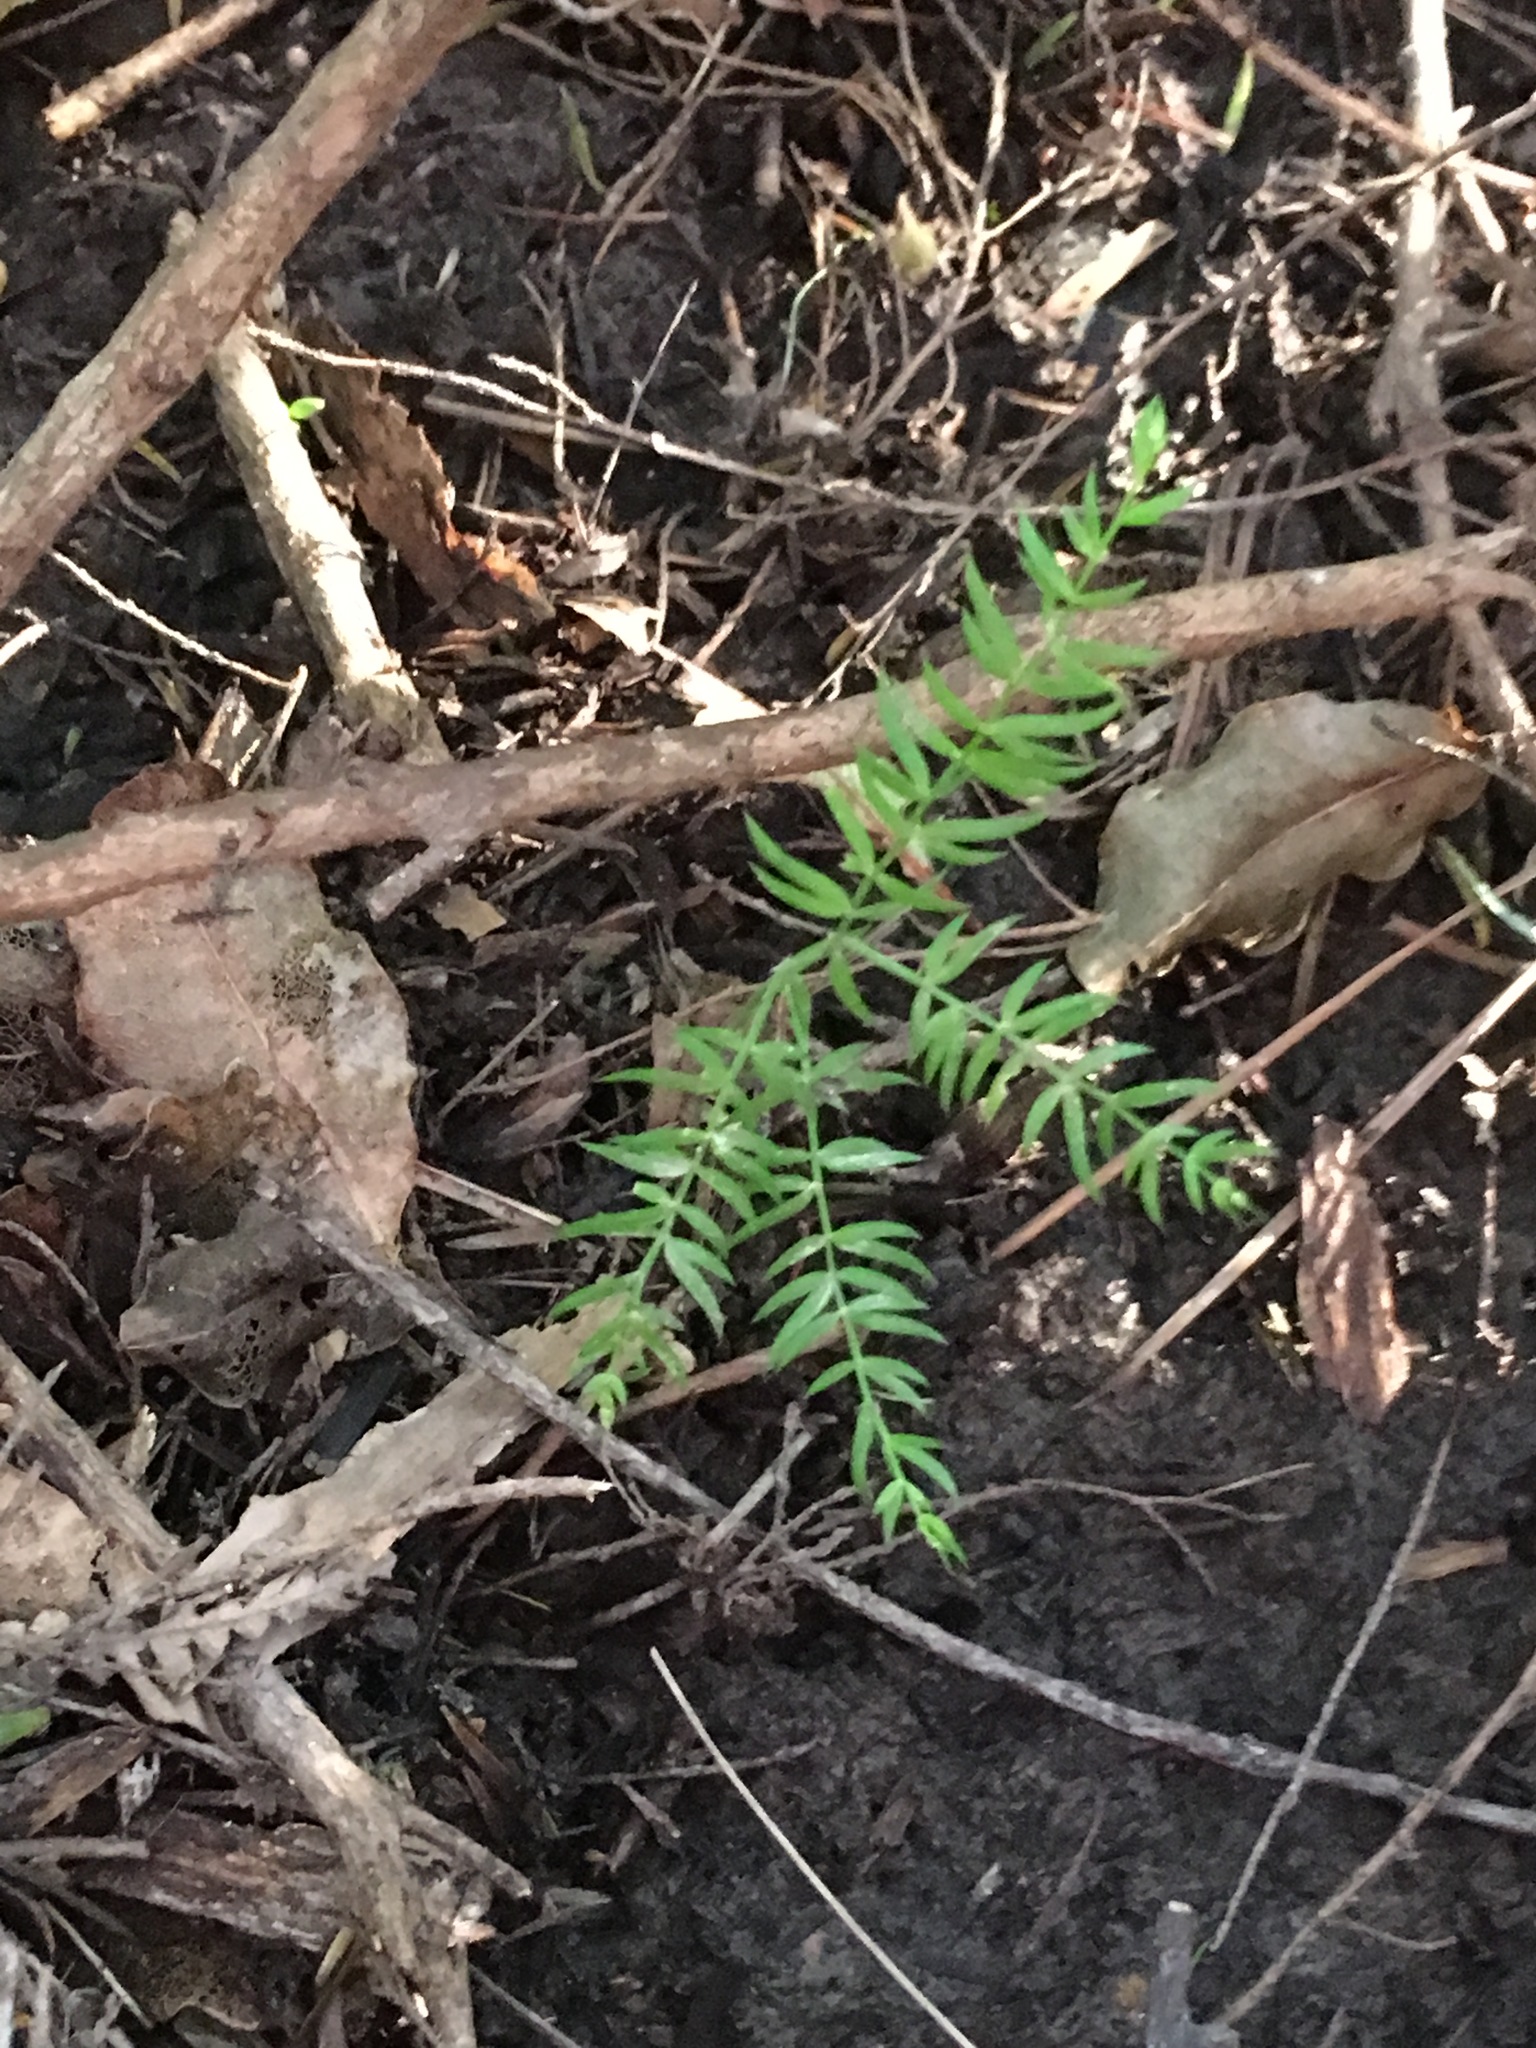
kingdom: Plantae
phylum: Tracheophyta
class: Liliopsida
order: Asparagales
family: Asparagaceae
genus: Asparagus
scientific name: Asparagus scandens
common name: Asparagus-fern
